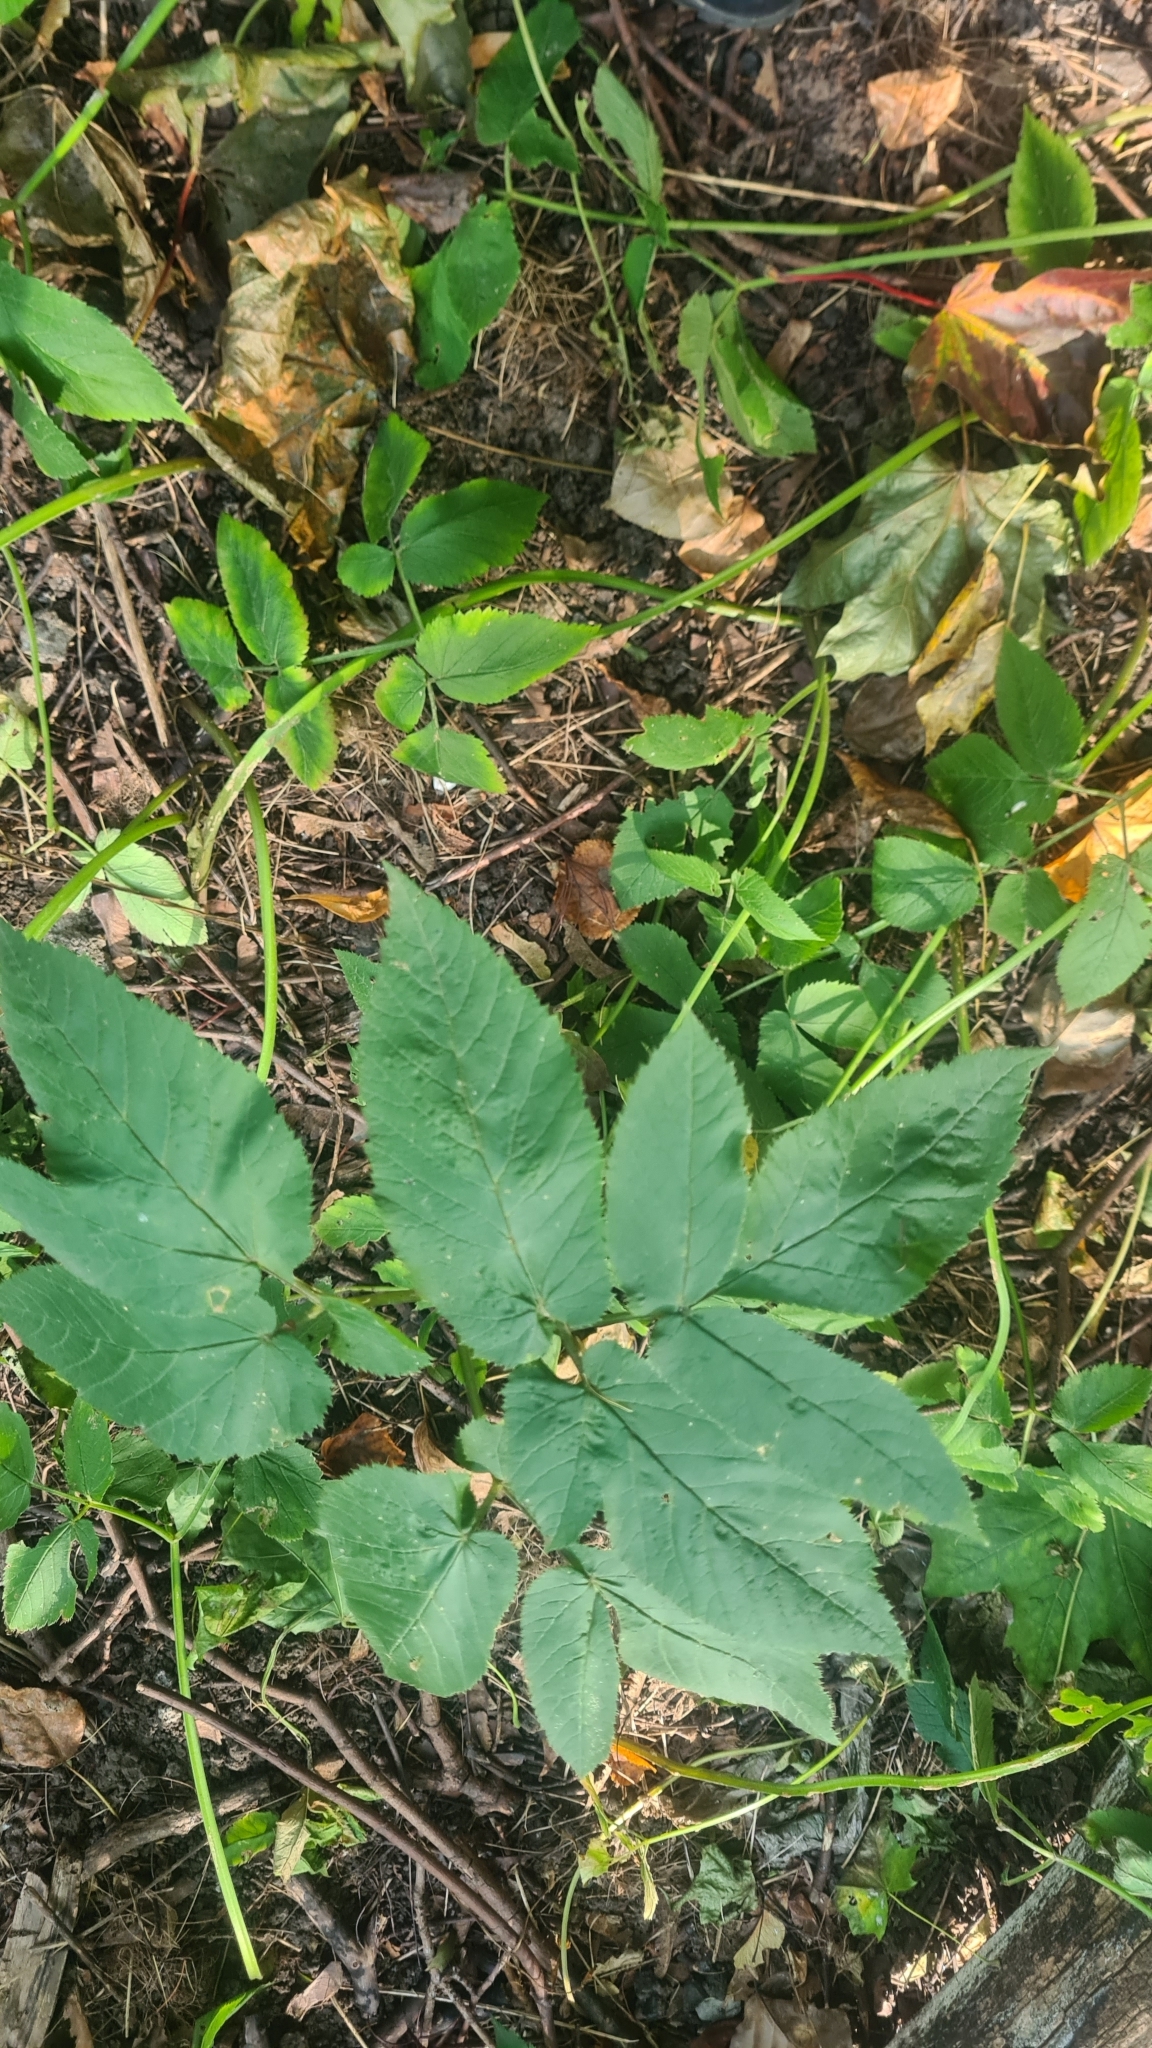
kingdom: Plantae
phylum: Tracheophyta
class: Magnoliopsida
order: Apiales
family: Apiaceae
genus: Aegopodium
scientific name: Aegopodium podagraria
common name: Ground-elder
